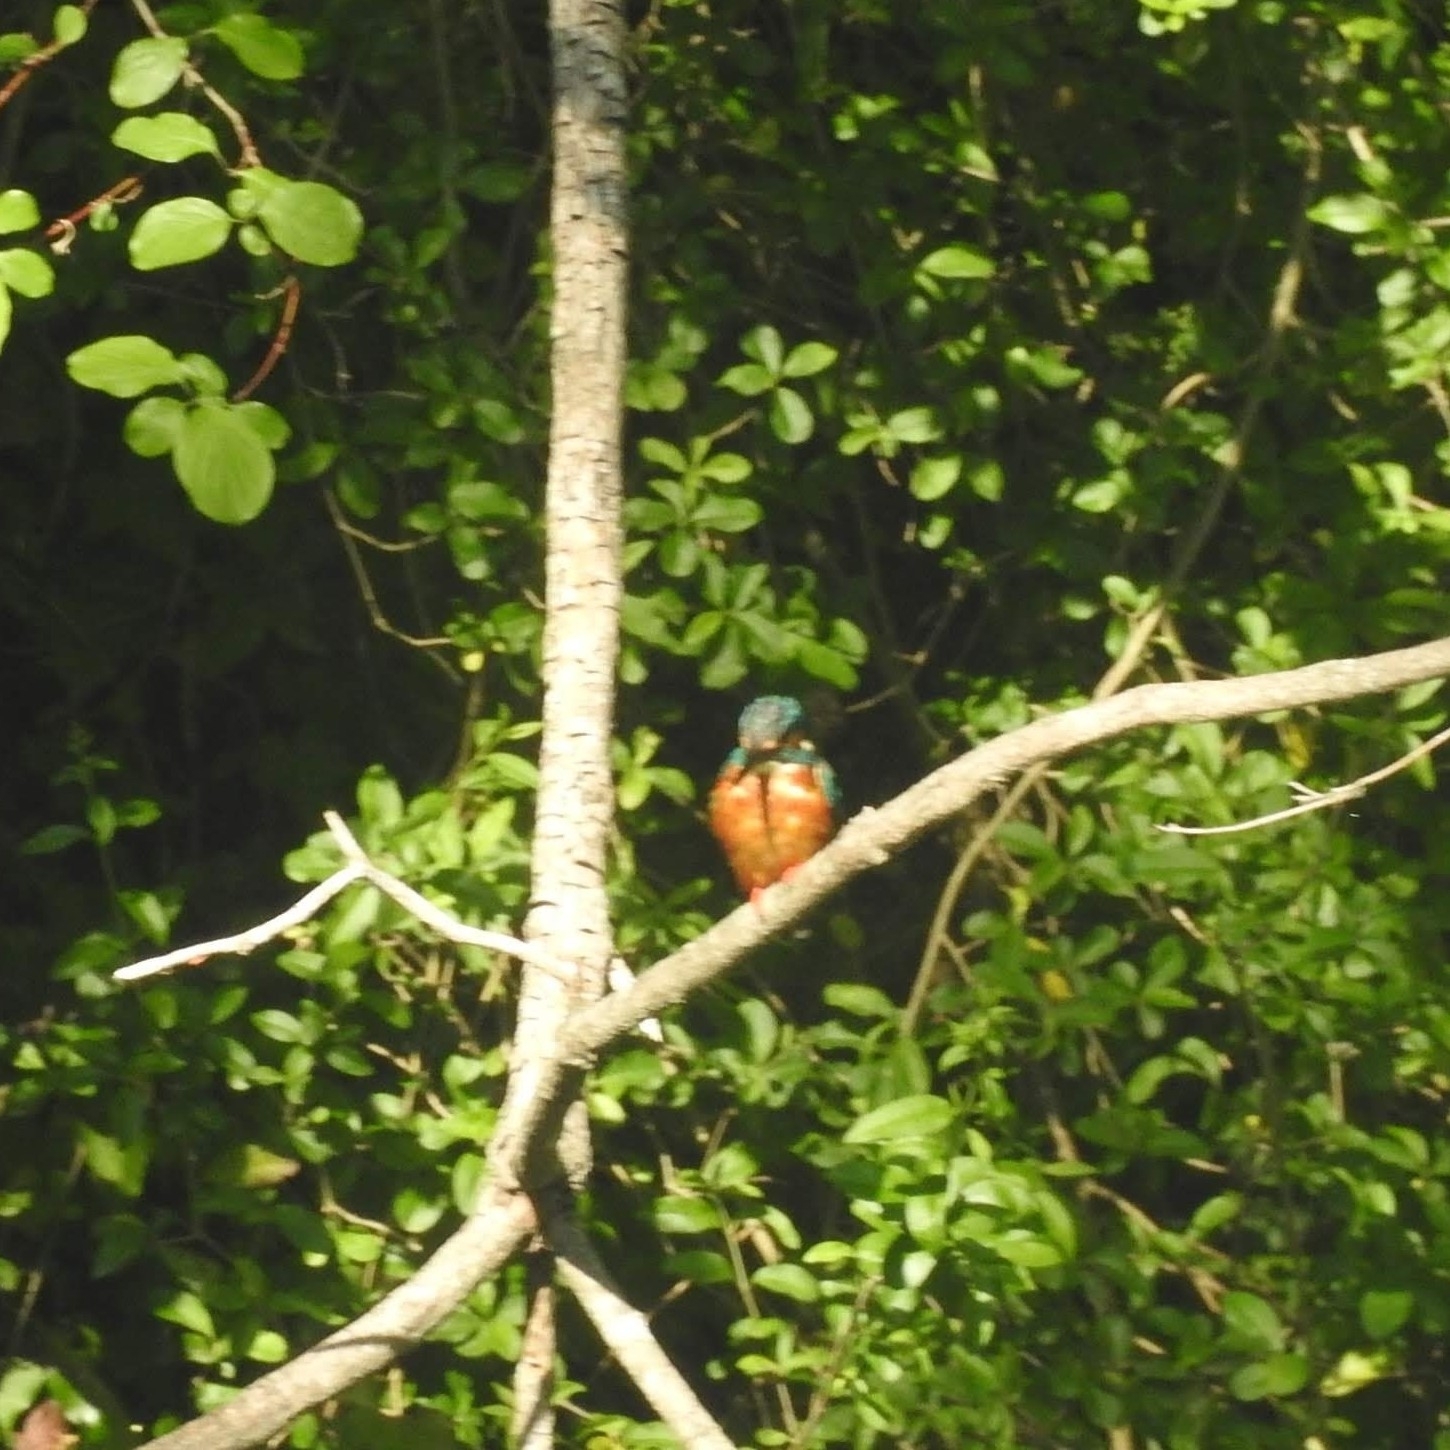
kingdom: Animalia
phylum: Chordata
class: Aves
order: Coraciiformes
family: Alcedinidae
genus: Alcedo
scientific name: Alcedo atthis
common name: Common kingfisher
